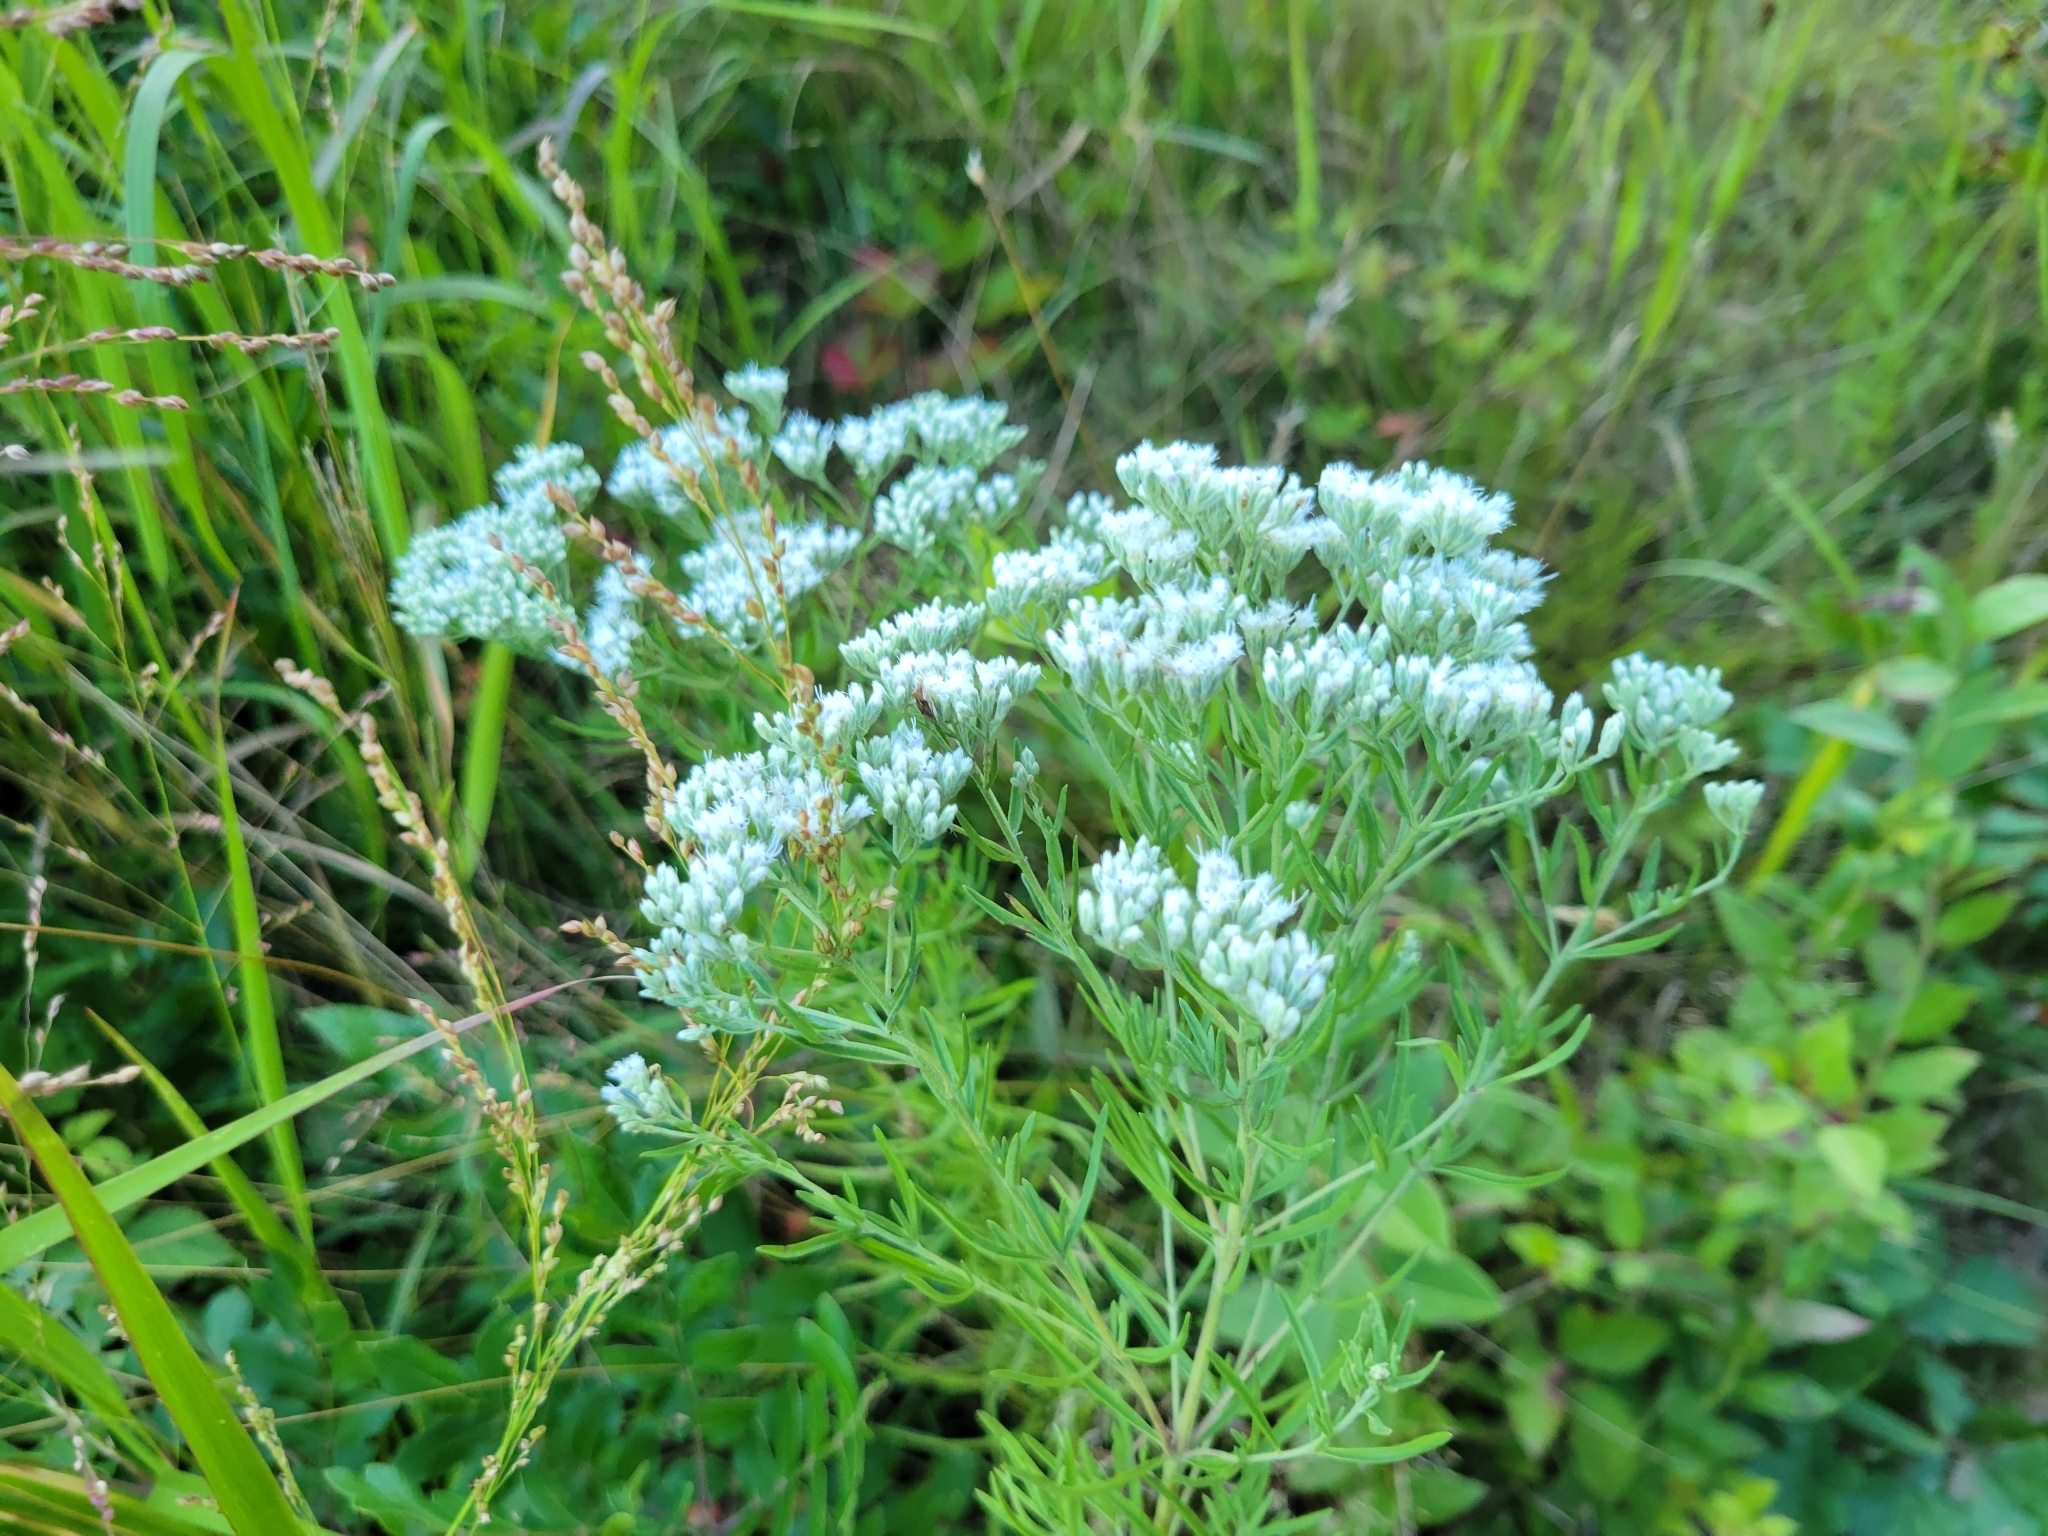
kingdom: Plantae
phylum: Tracheophyta
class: Magnoliopsida
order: Asterales
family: Asteraceae
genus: Eupatorium
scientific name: Eupatorium hyssopifolium
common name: Hyssop-leaf thoroughwort
